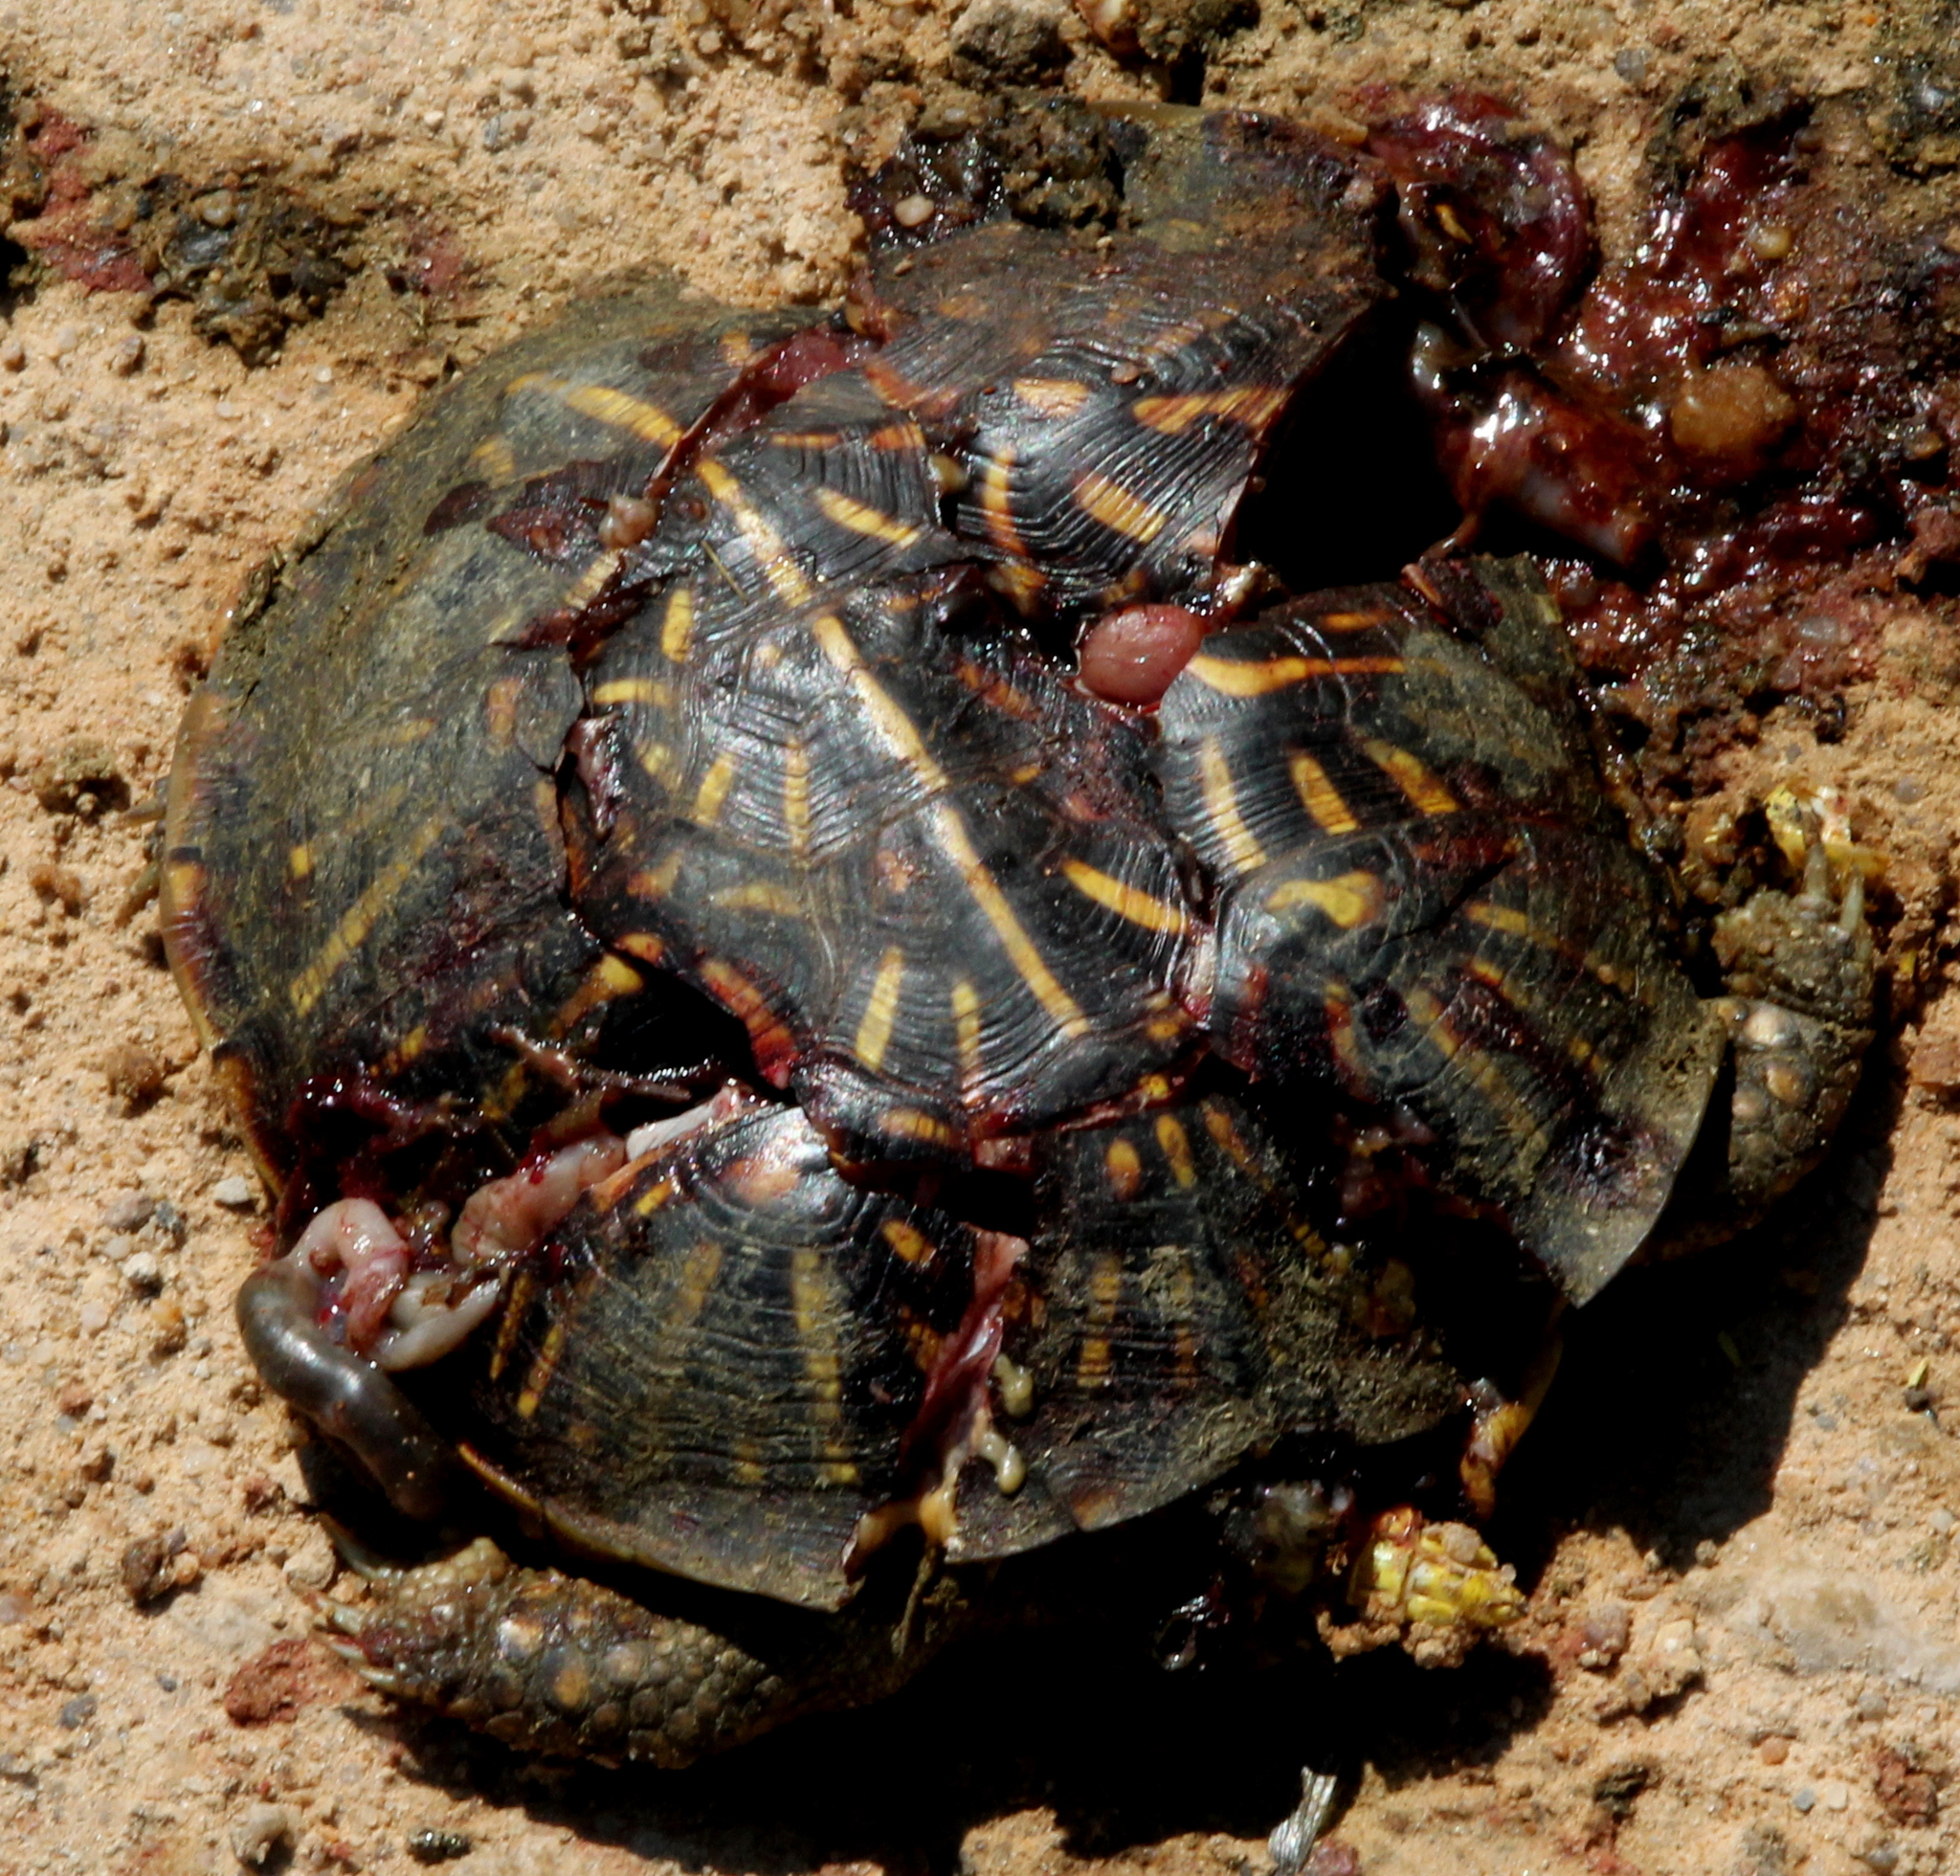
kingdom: Animalia
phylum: Chordata
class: Testudines
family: Emydidae
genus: Terrapene
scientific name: Terrapene ornata
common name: Western box turtle
